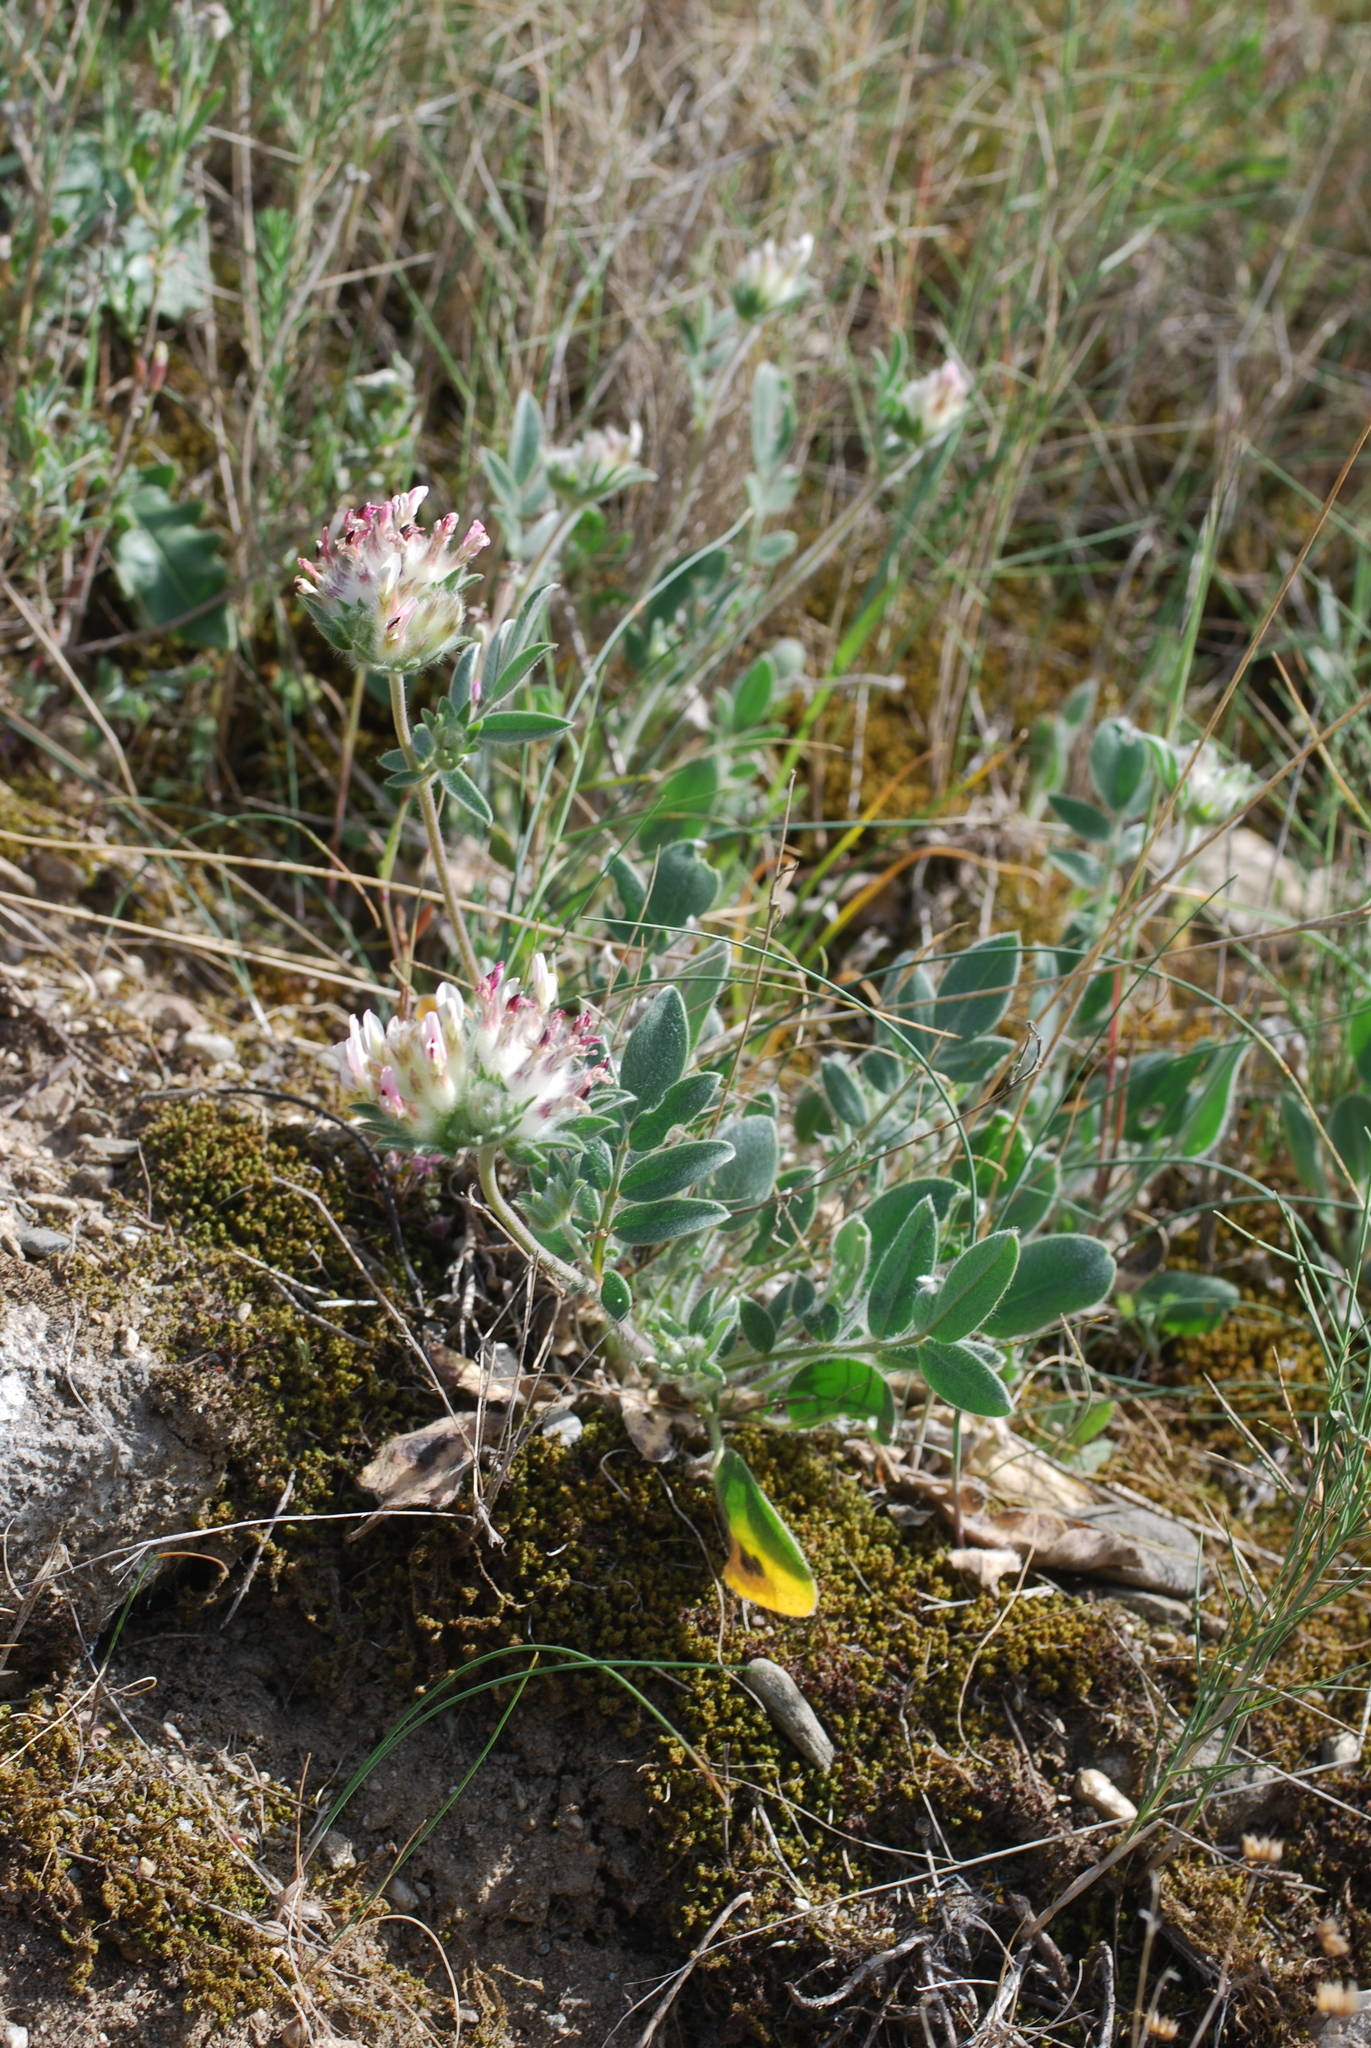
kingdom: Plantae
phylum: Tracheophyta
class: Magnoliopsida
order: Fabales
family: Fabaceae
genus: Anthyllis
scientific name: Anthyllis vulneraria
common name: Kidney vetch
